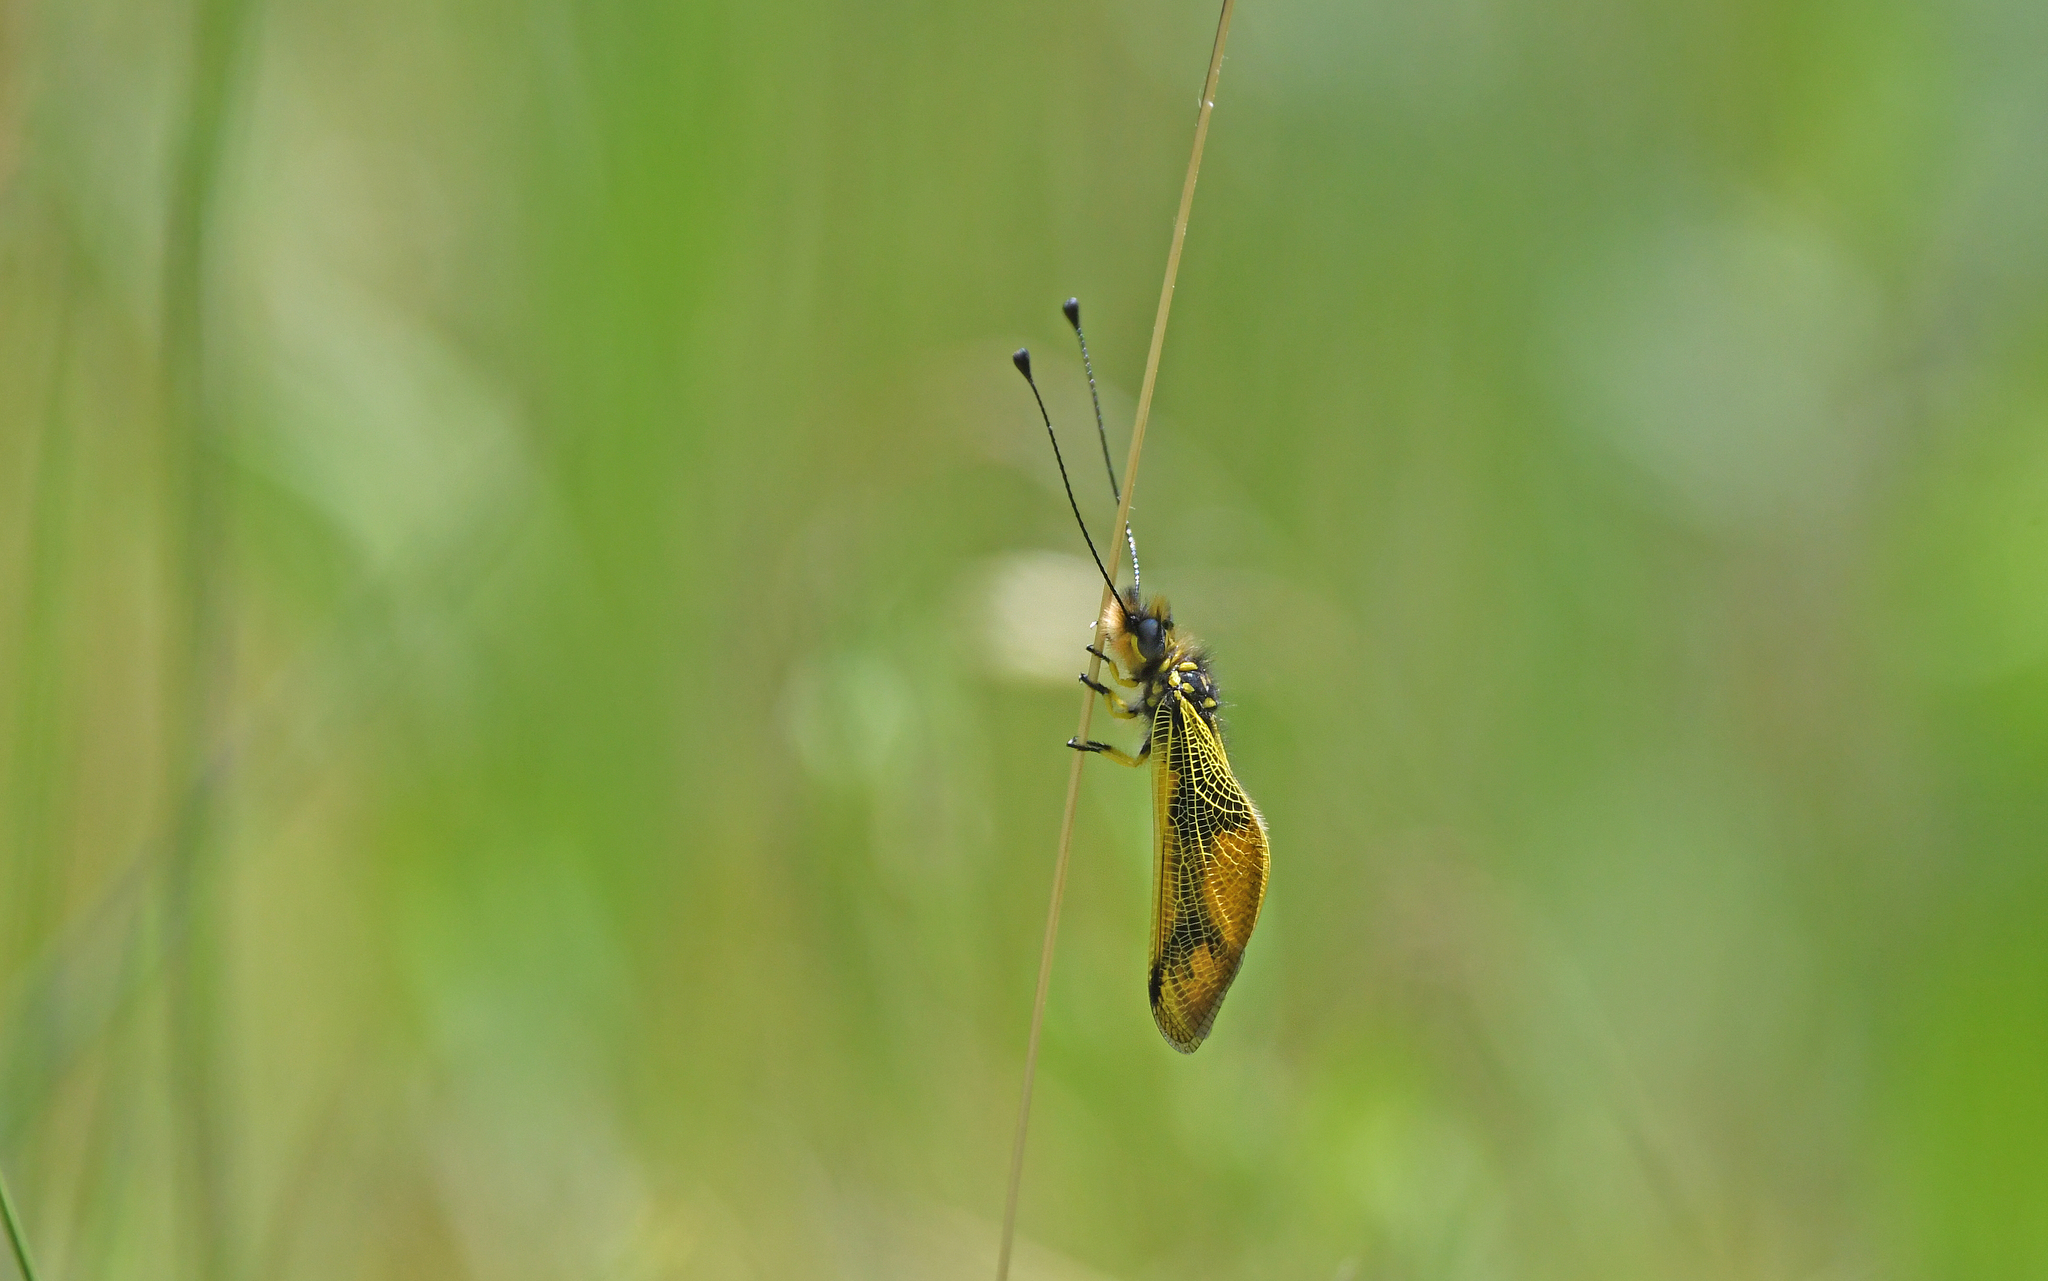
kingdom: Animalia
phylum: Arthropoda
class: Insecta
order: Neuroptera
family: Ascalaphidae
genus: Libelloides
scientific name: Libelloides longicornis
